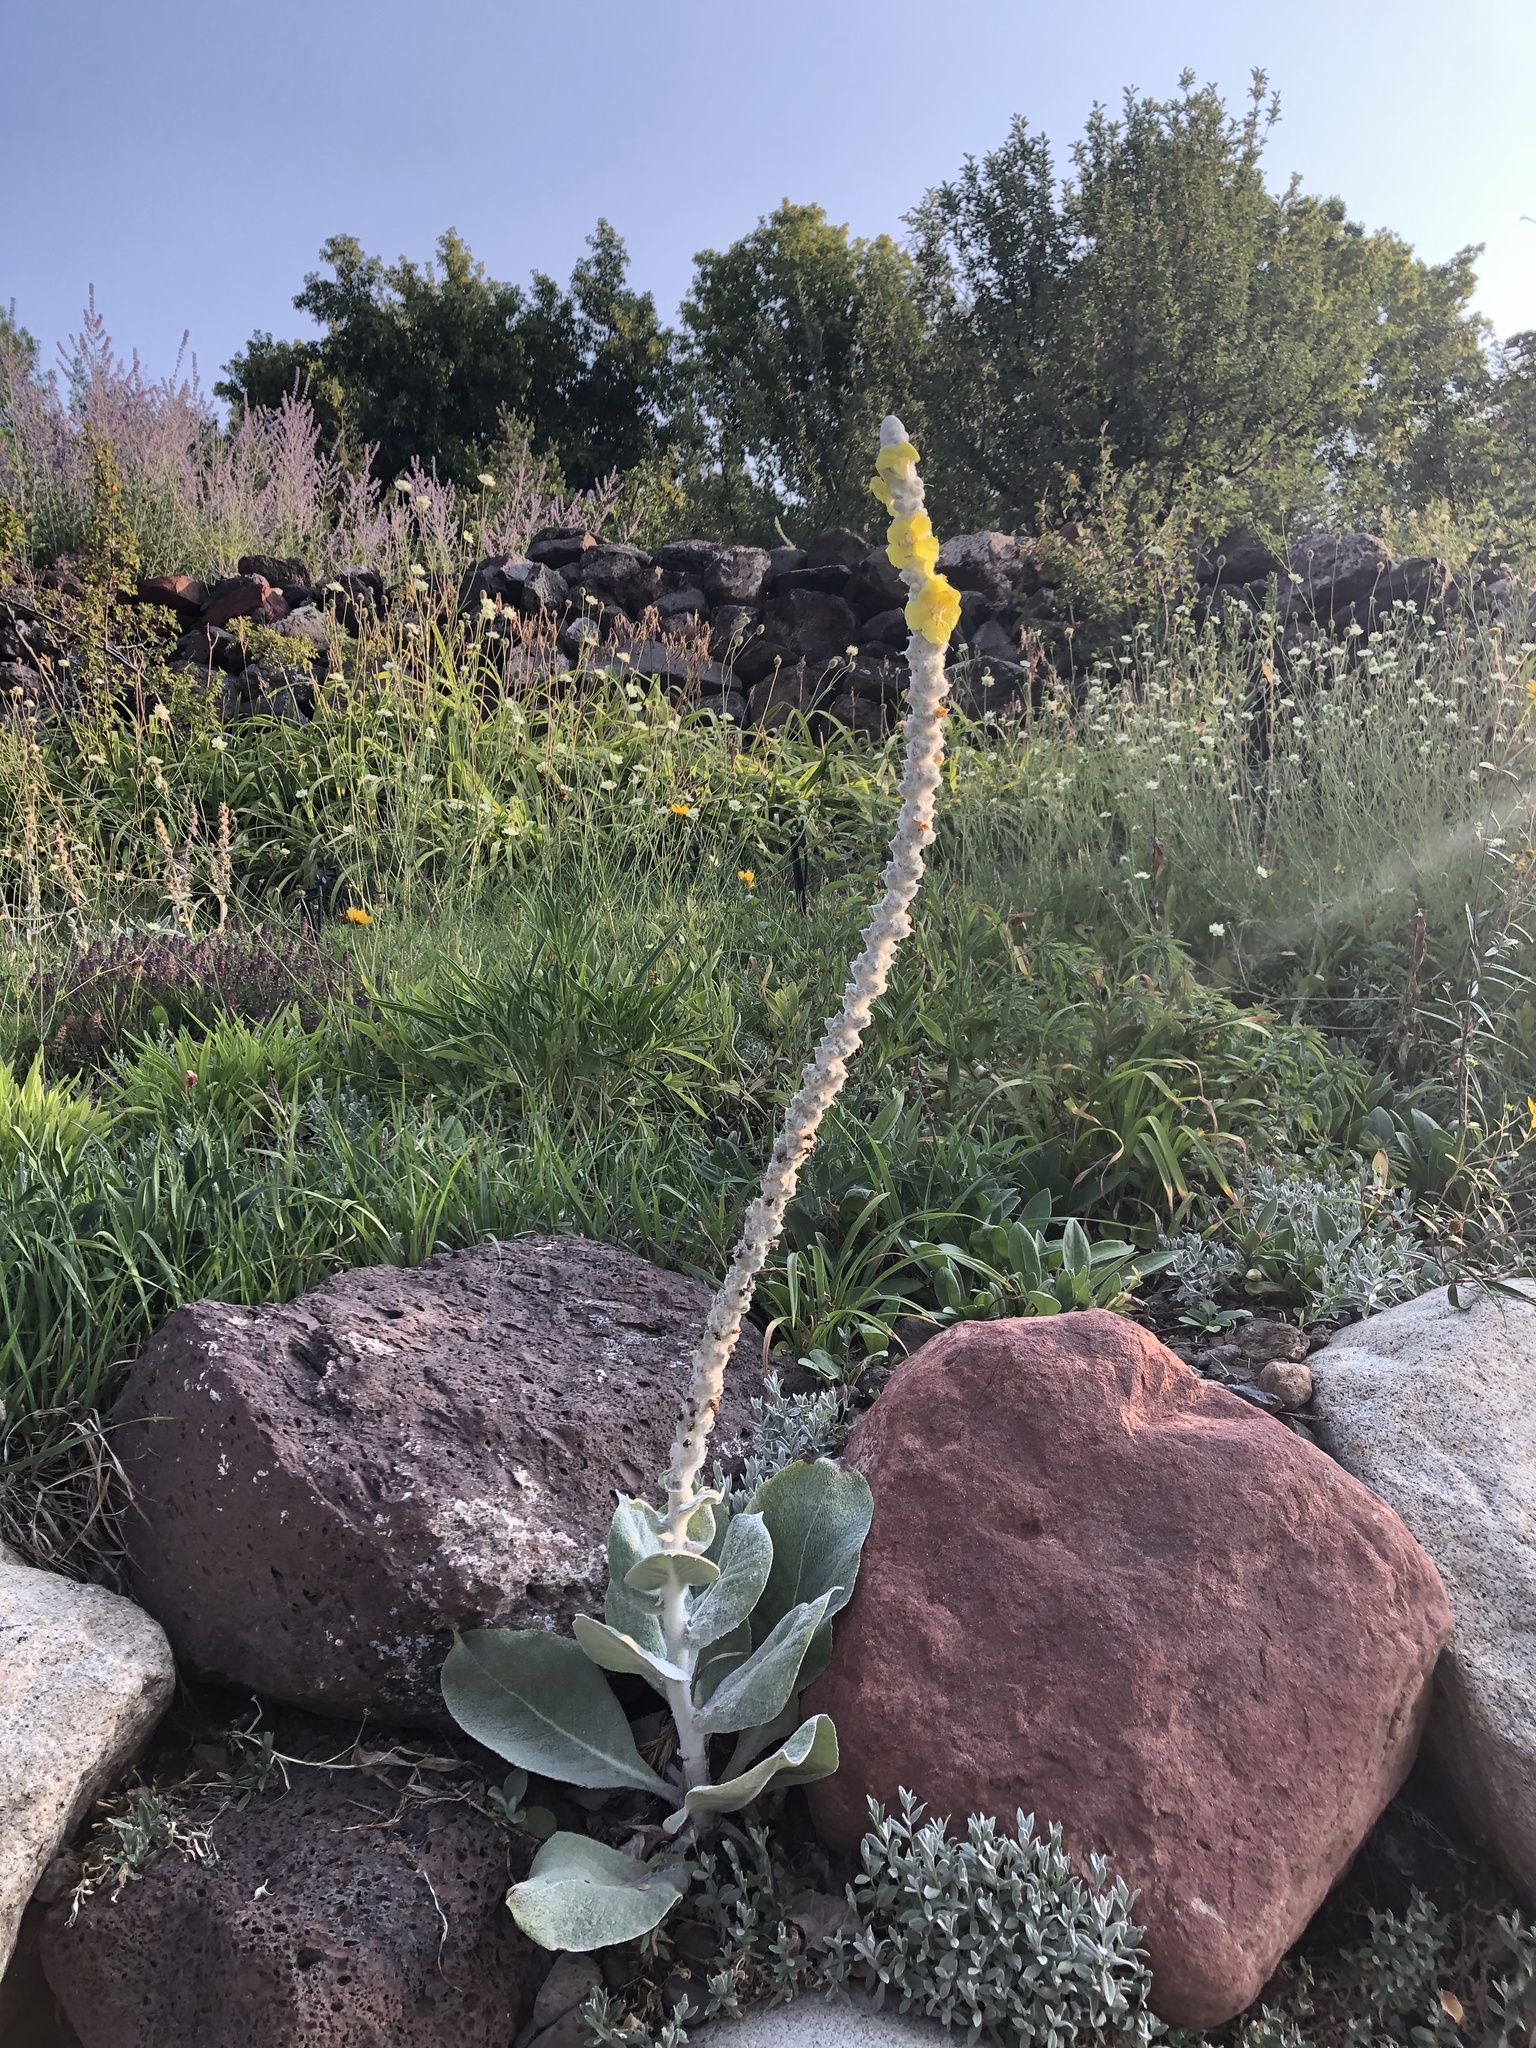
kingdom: Plantae
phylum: Tracheophyta
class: Magnoliopsida
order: Lamiales
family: Scrophulariaceae
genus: Verbascum
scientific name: Verbascum bombyciferum
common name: Broussa mullein
